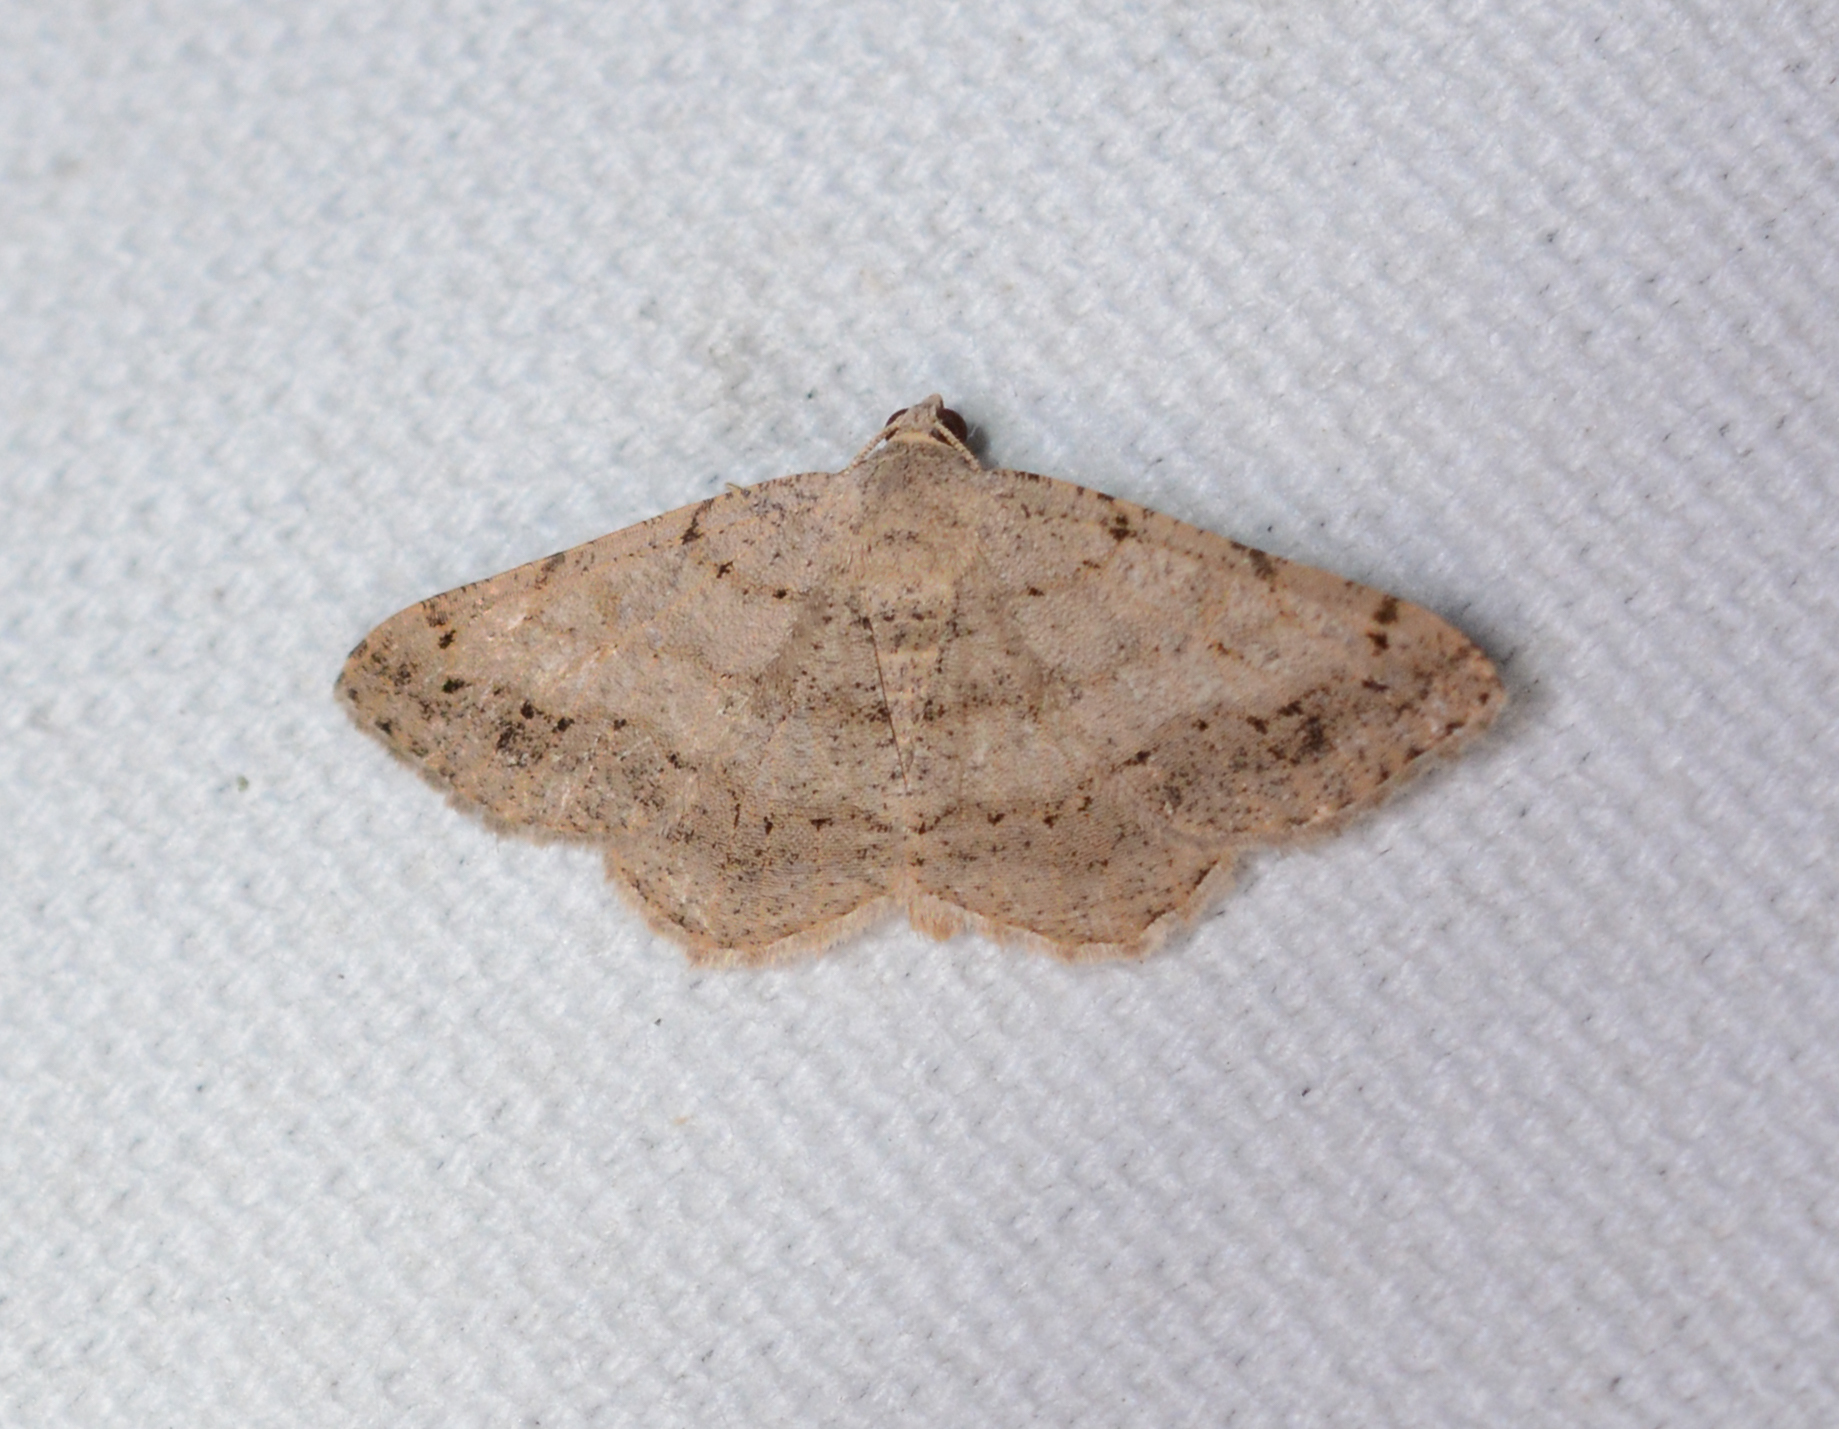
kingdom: Animalia
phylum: Arthropoda
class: Insecta
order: Lepidoptera
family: Geometridae
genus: Digrammia
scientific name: Digrammia ocellinata
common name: Faint-spotted angle
